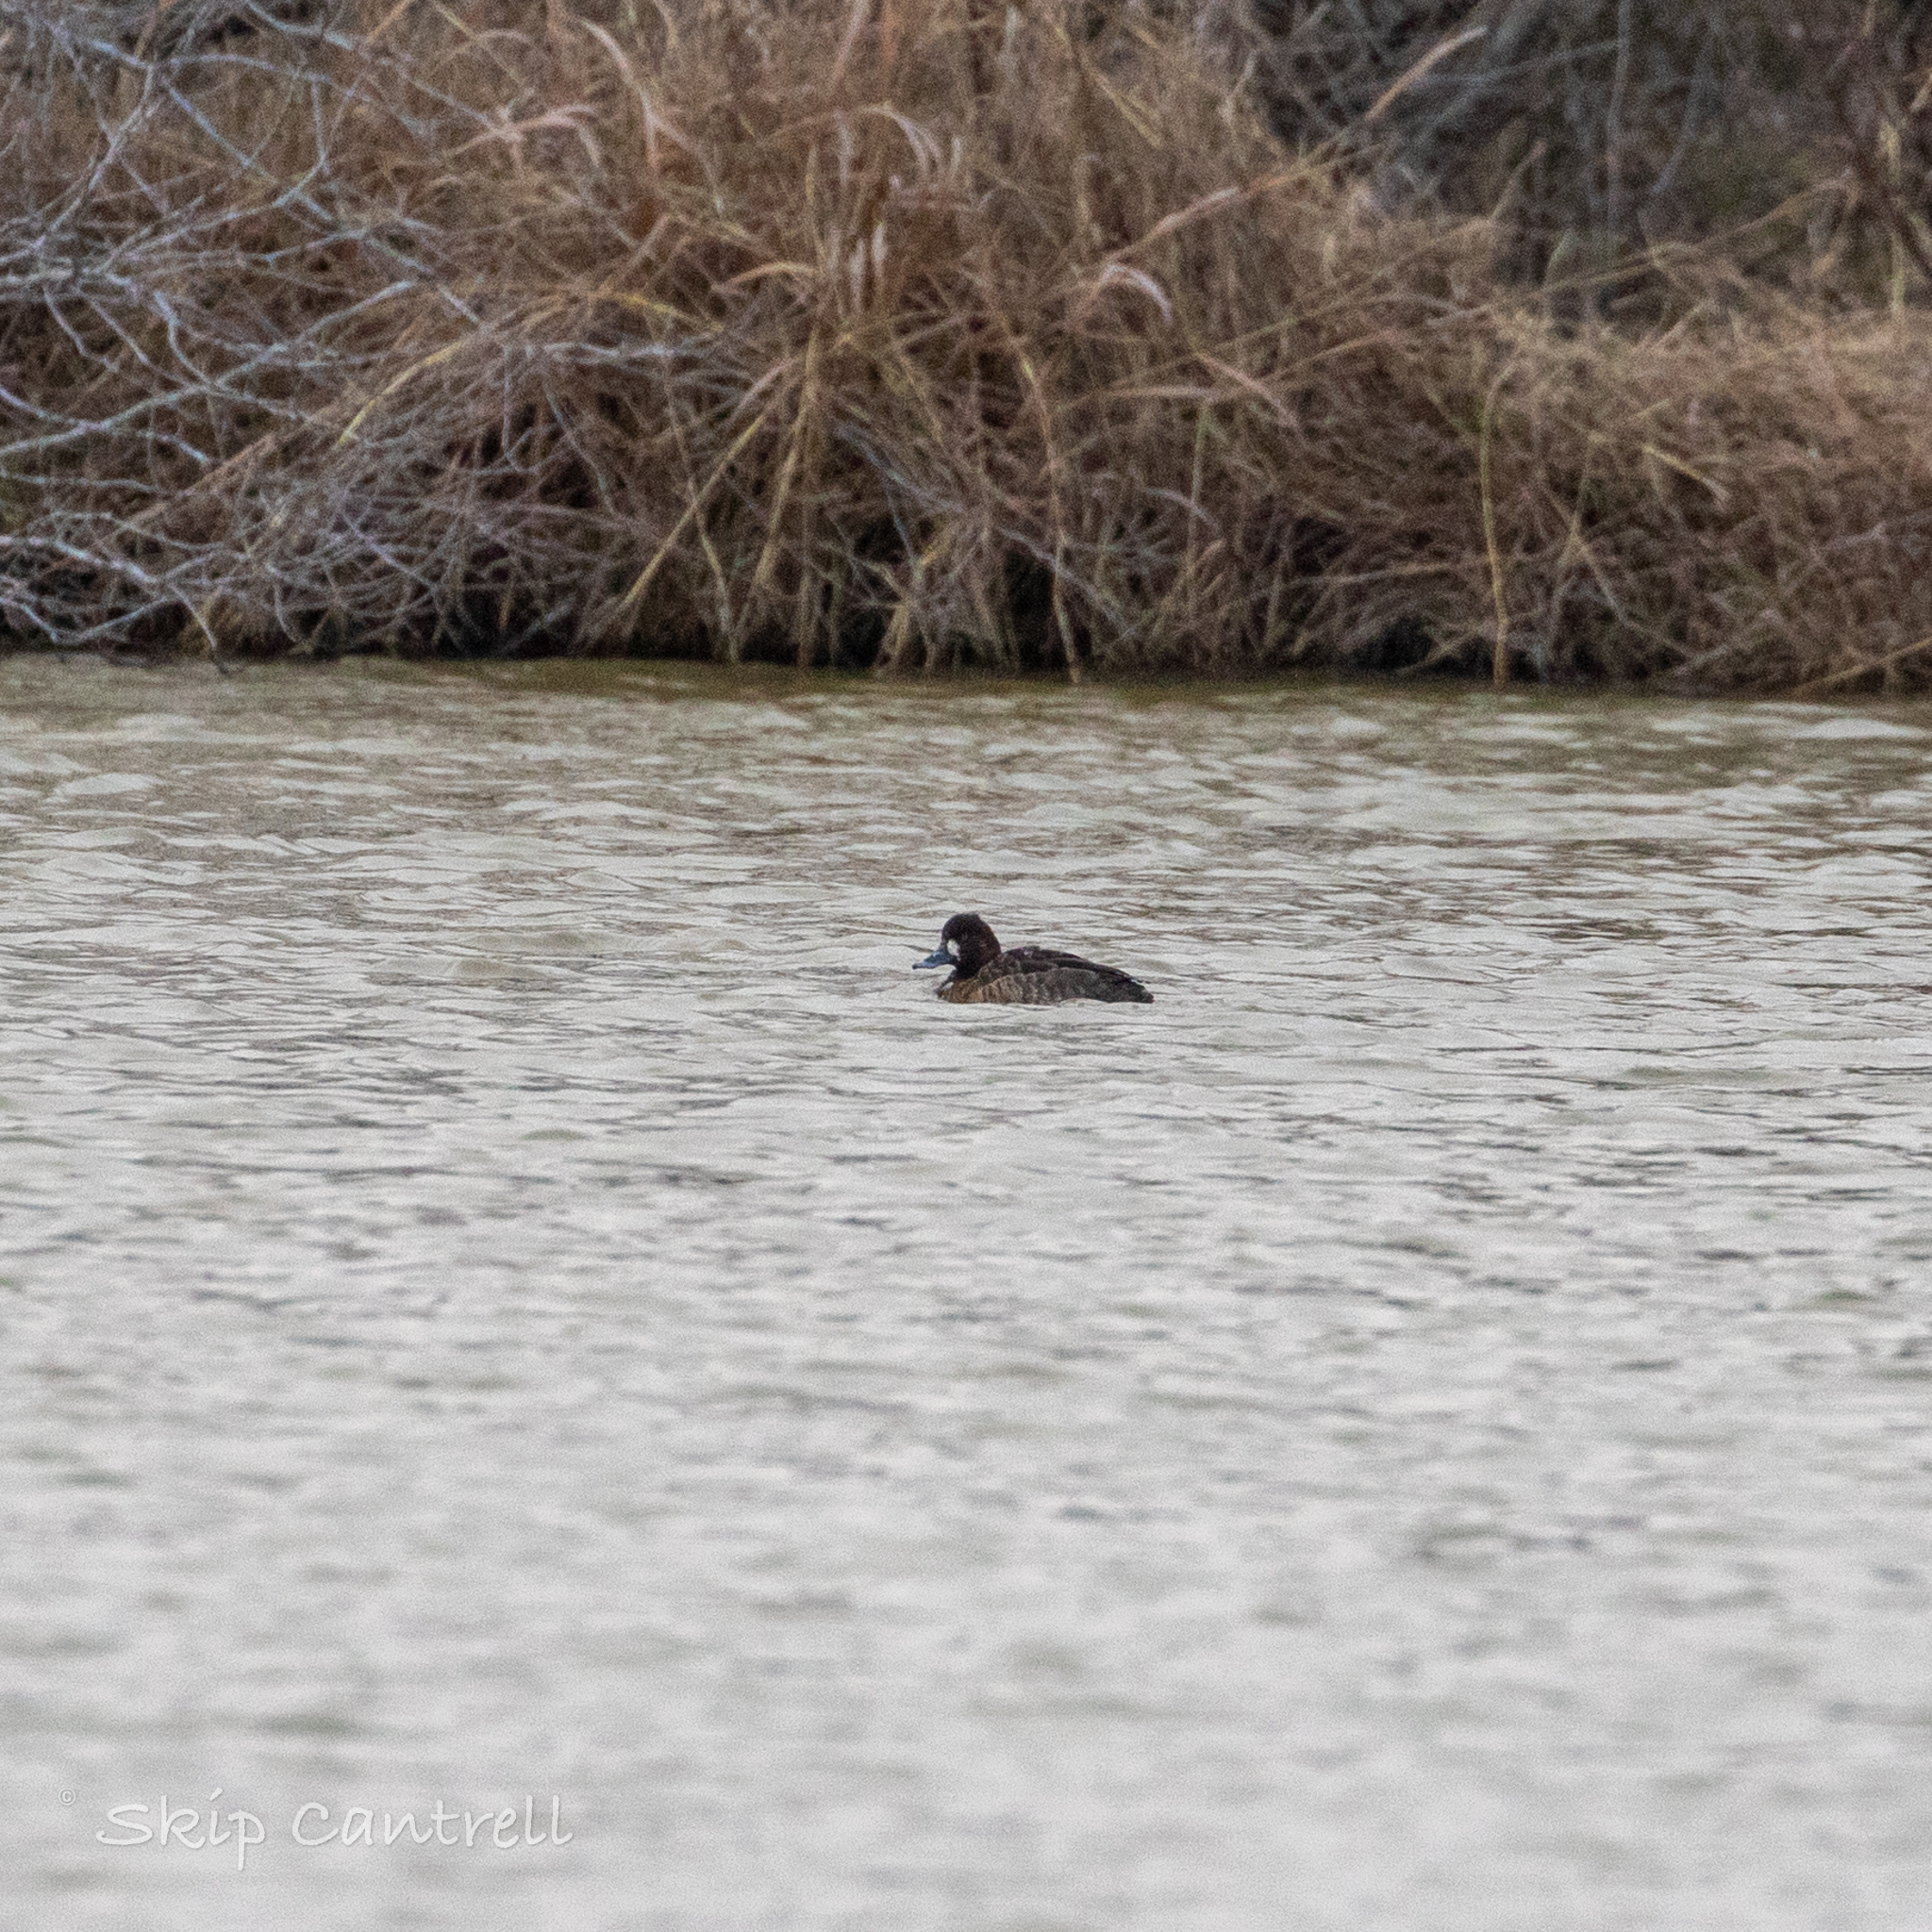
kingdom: Animalia
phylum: Chordata
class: Aves
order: Anseriformes
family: Anatidae
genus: Aythya
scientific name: Aythya affinis
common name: Lesser scaup
